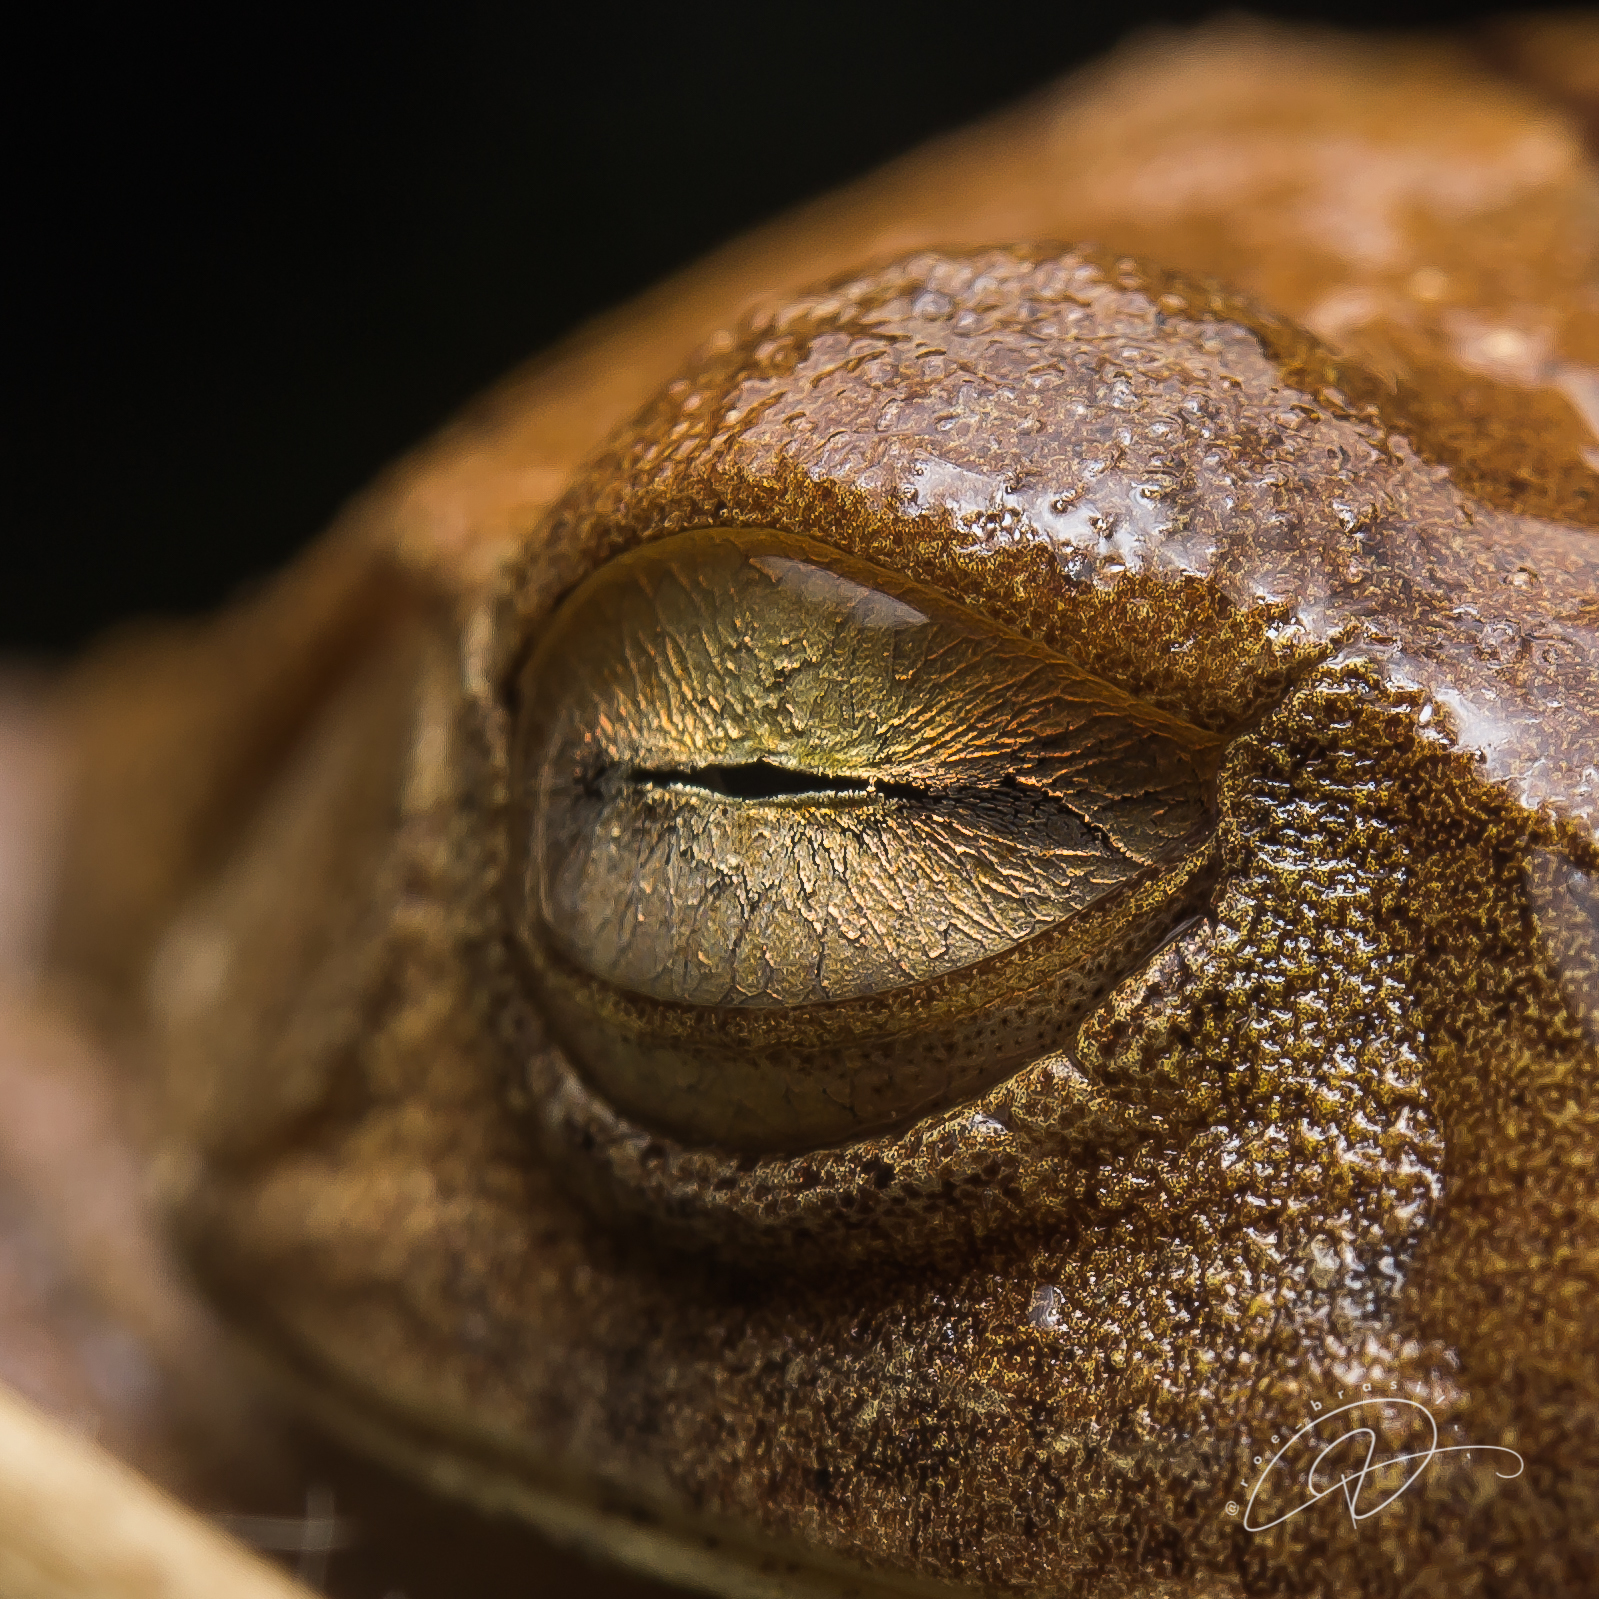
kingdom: Animalia
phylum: Chordata
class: Amphibia
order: Anura
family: Hylidae
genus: Boana
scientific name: Boana faber
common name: Blacksmith tree frog
